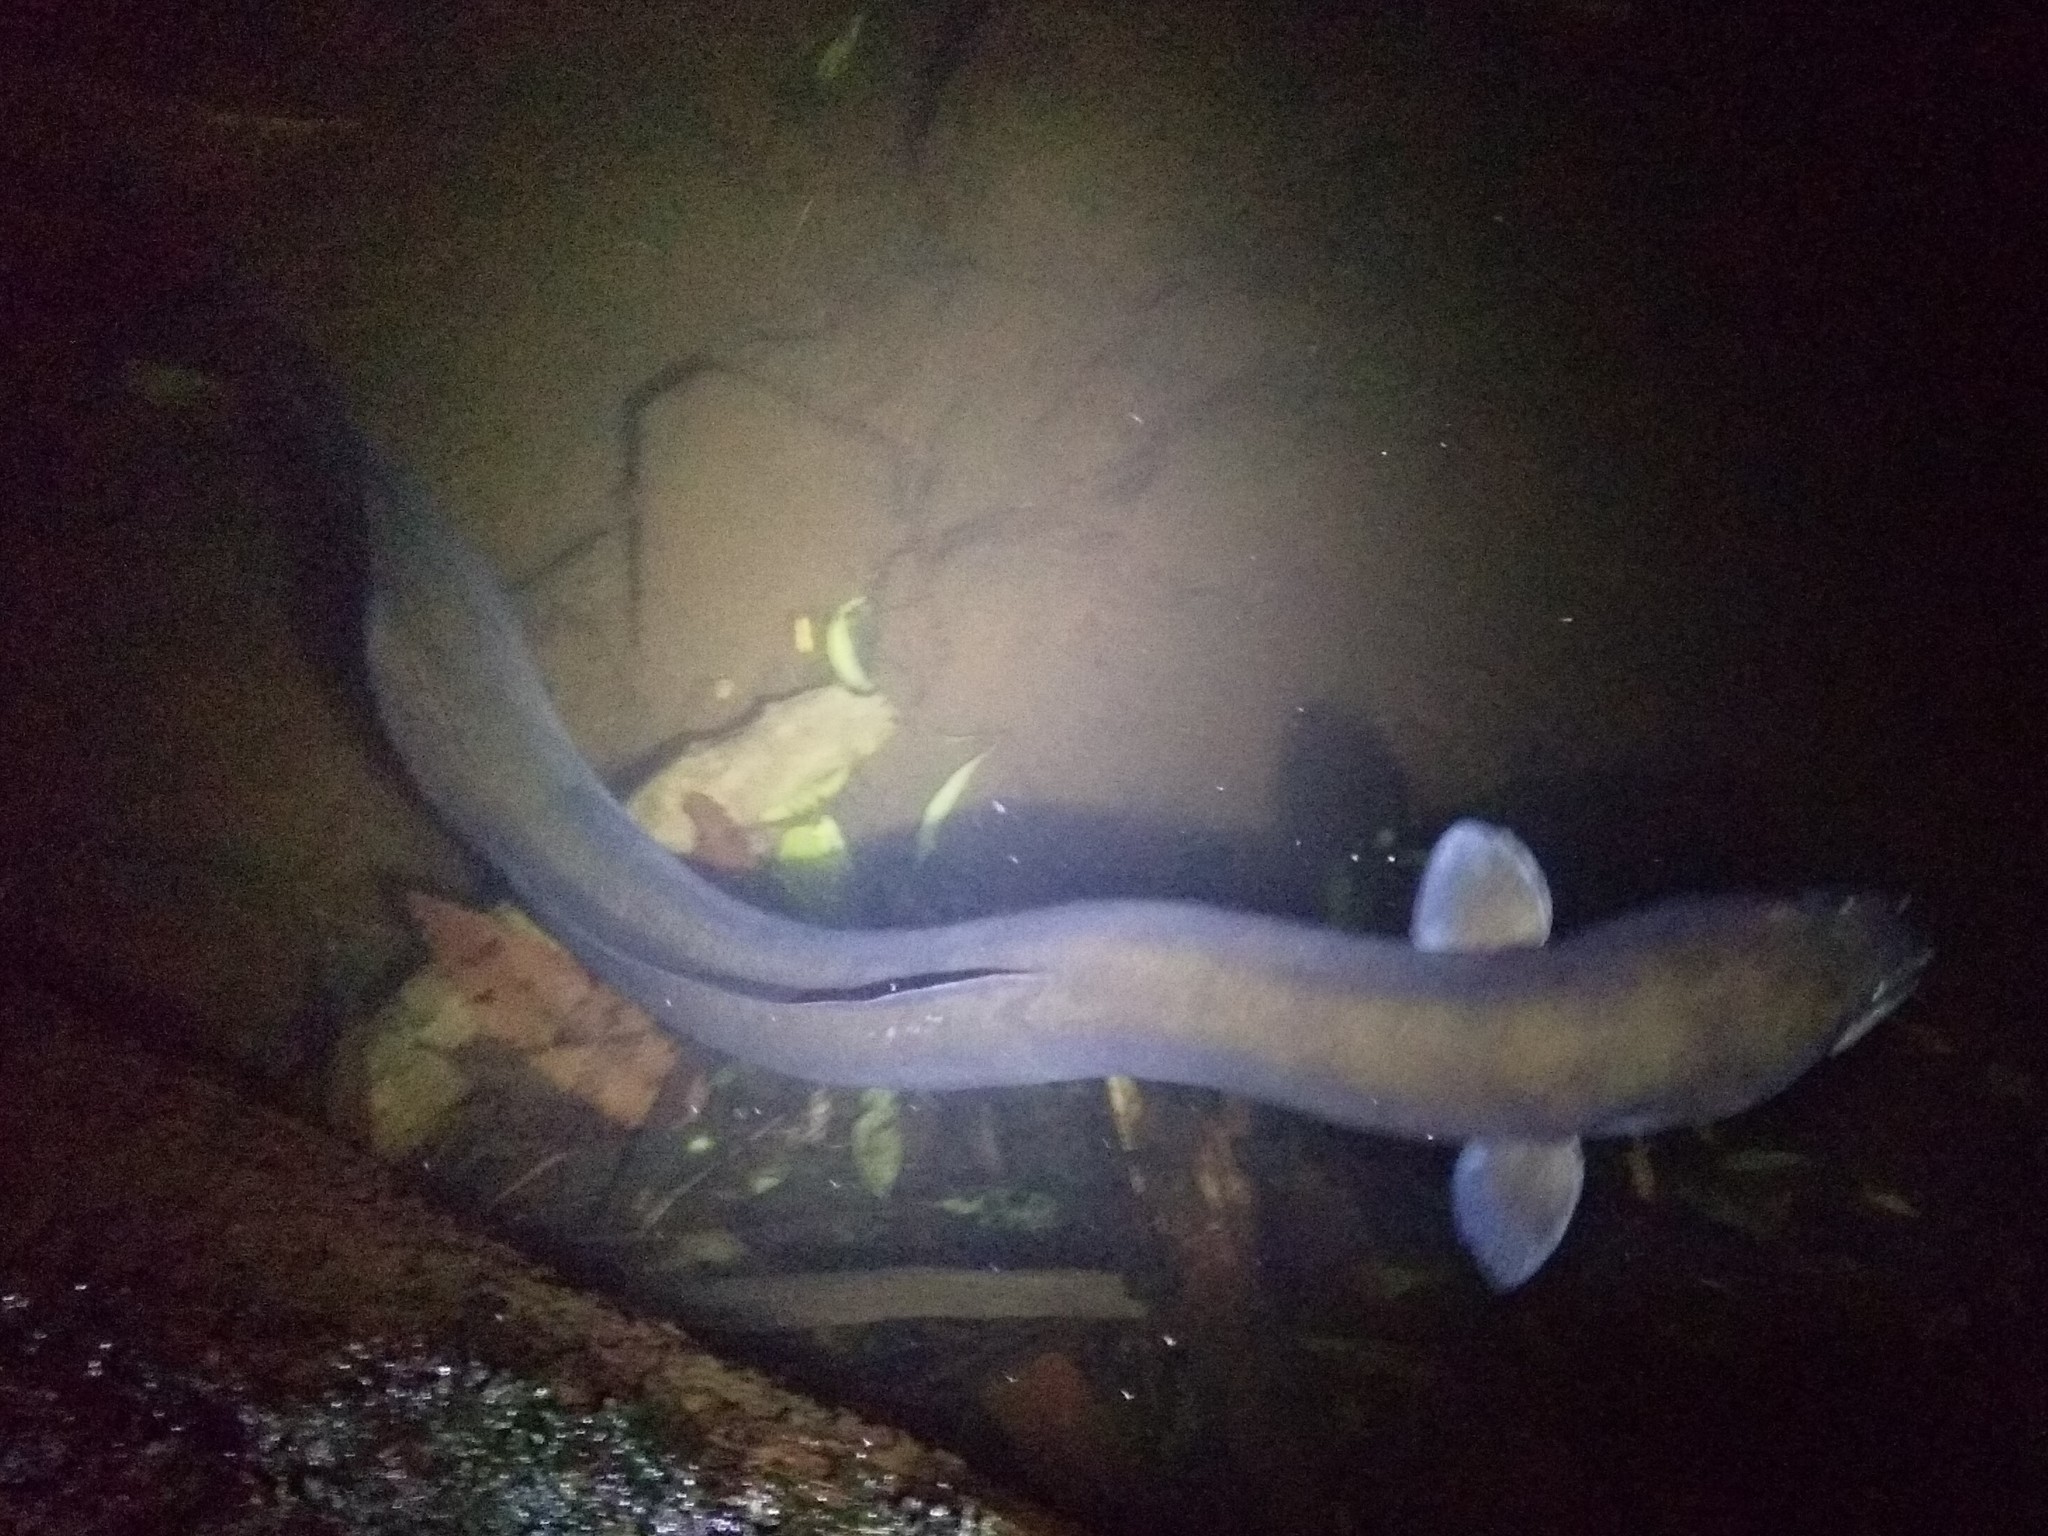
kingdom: Animalia
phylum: Chordata
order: Anguilliformes
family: Anguillidae
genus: Anguilla
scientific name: Anguilla dieffenbachii
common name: New zealand longfin eel
